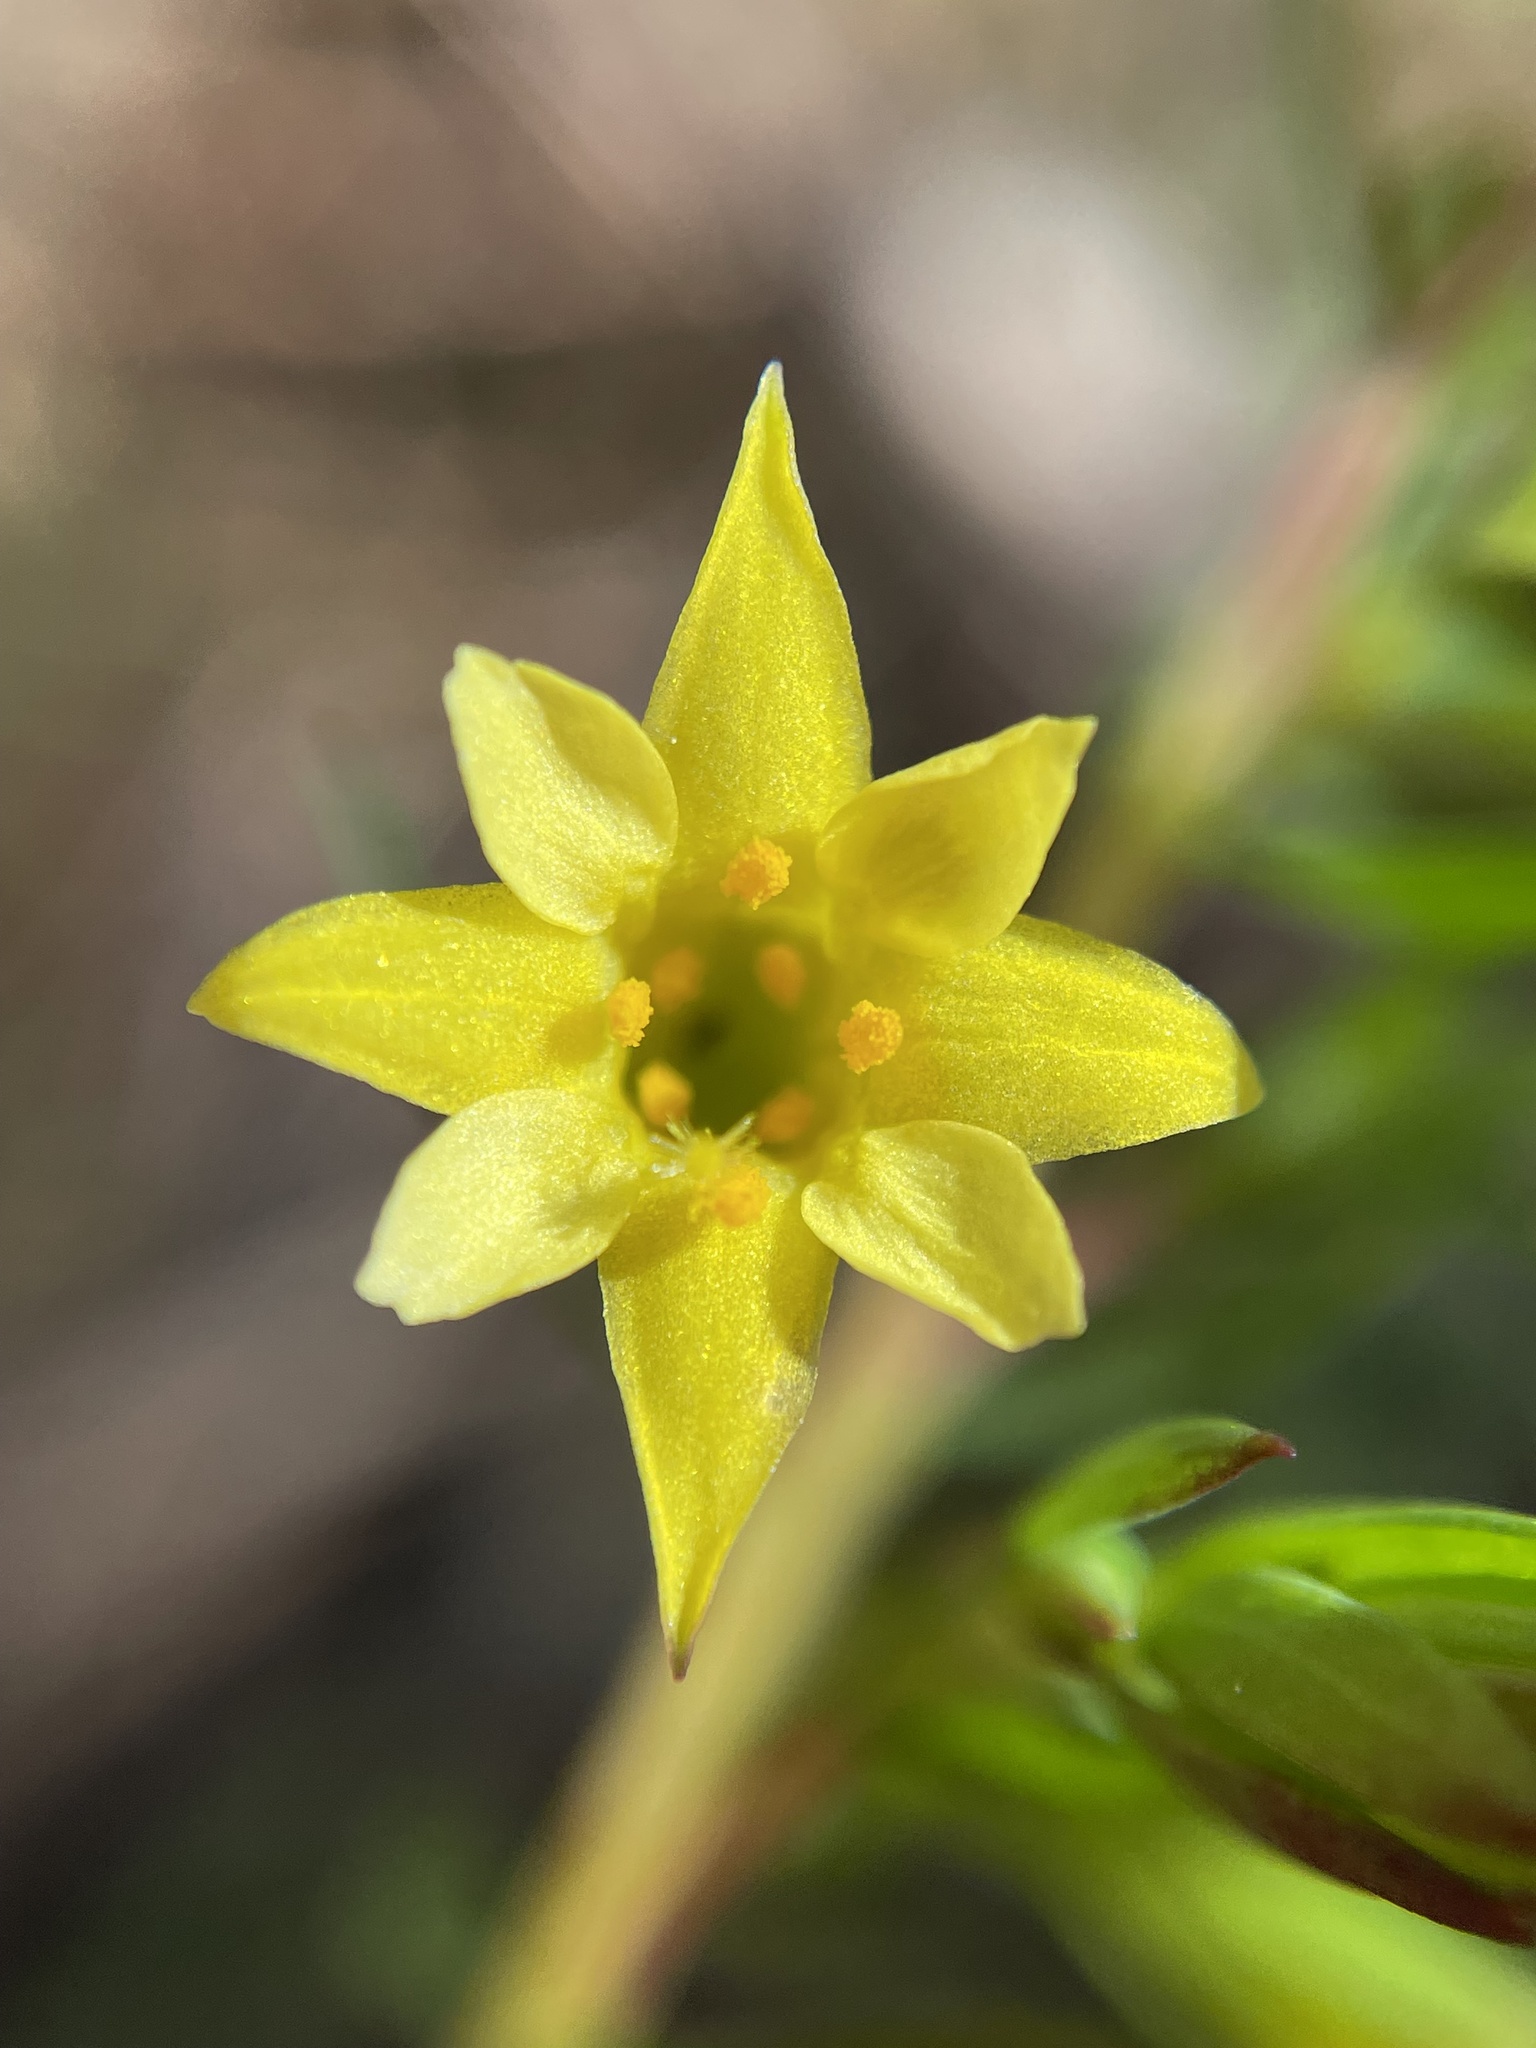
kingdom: Plantae
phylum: Tracheophyta
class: Magnoliopsida
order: Malvales
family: Thymelaeaceae
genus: Gnidia
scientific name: Gnidia juniperifolia
